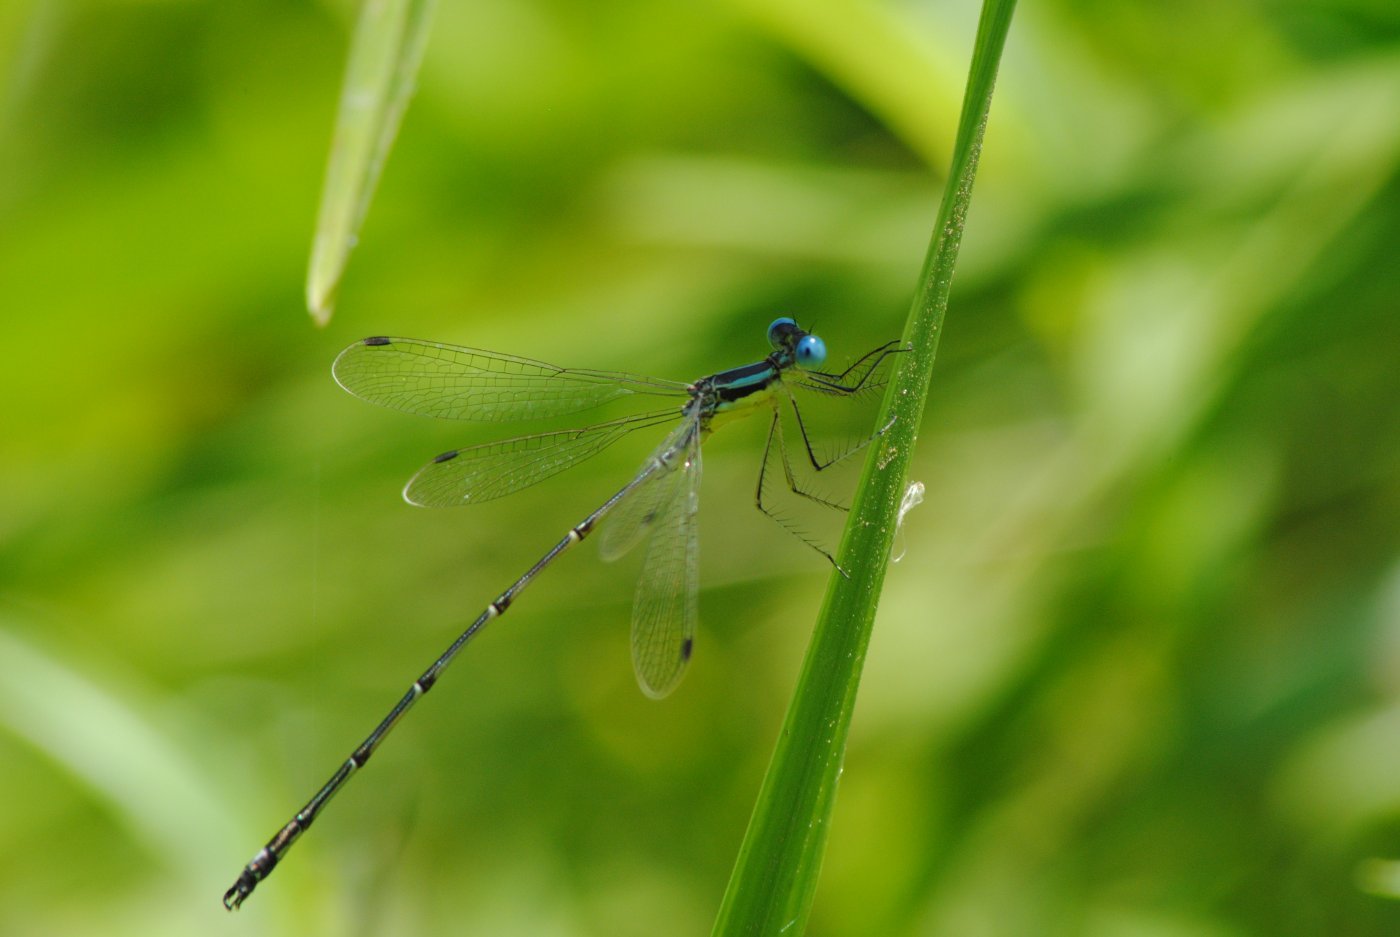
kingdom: Animalia
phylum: Arthropoda
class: Insecta
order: Odonata
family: Lestidae
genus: Lestes
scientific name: Lestes rectangularis
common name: Slender spreadwing
